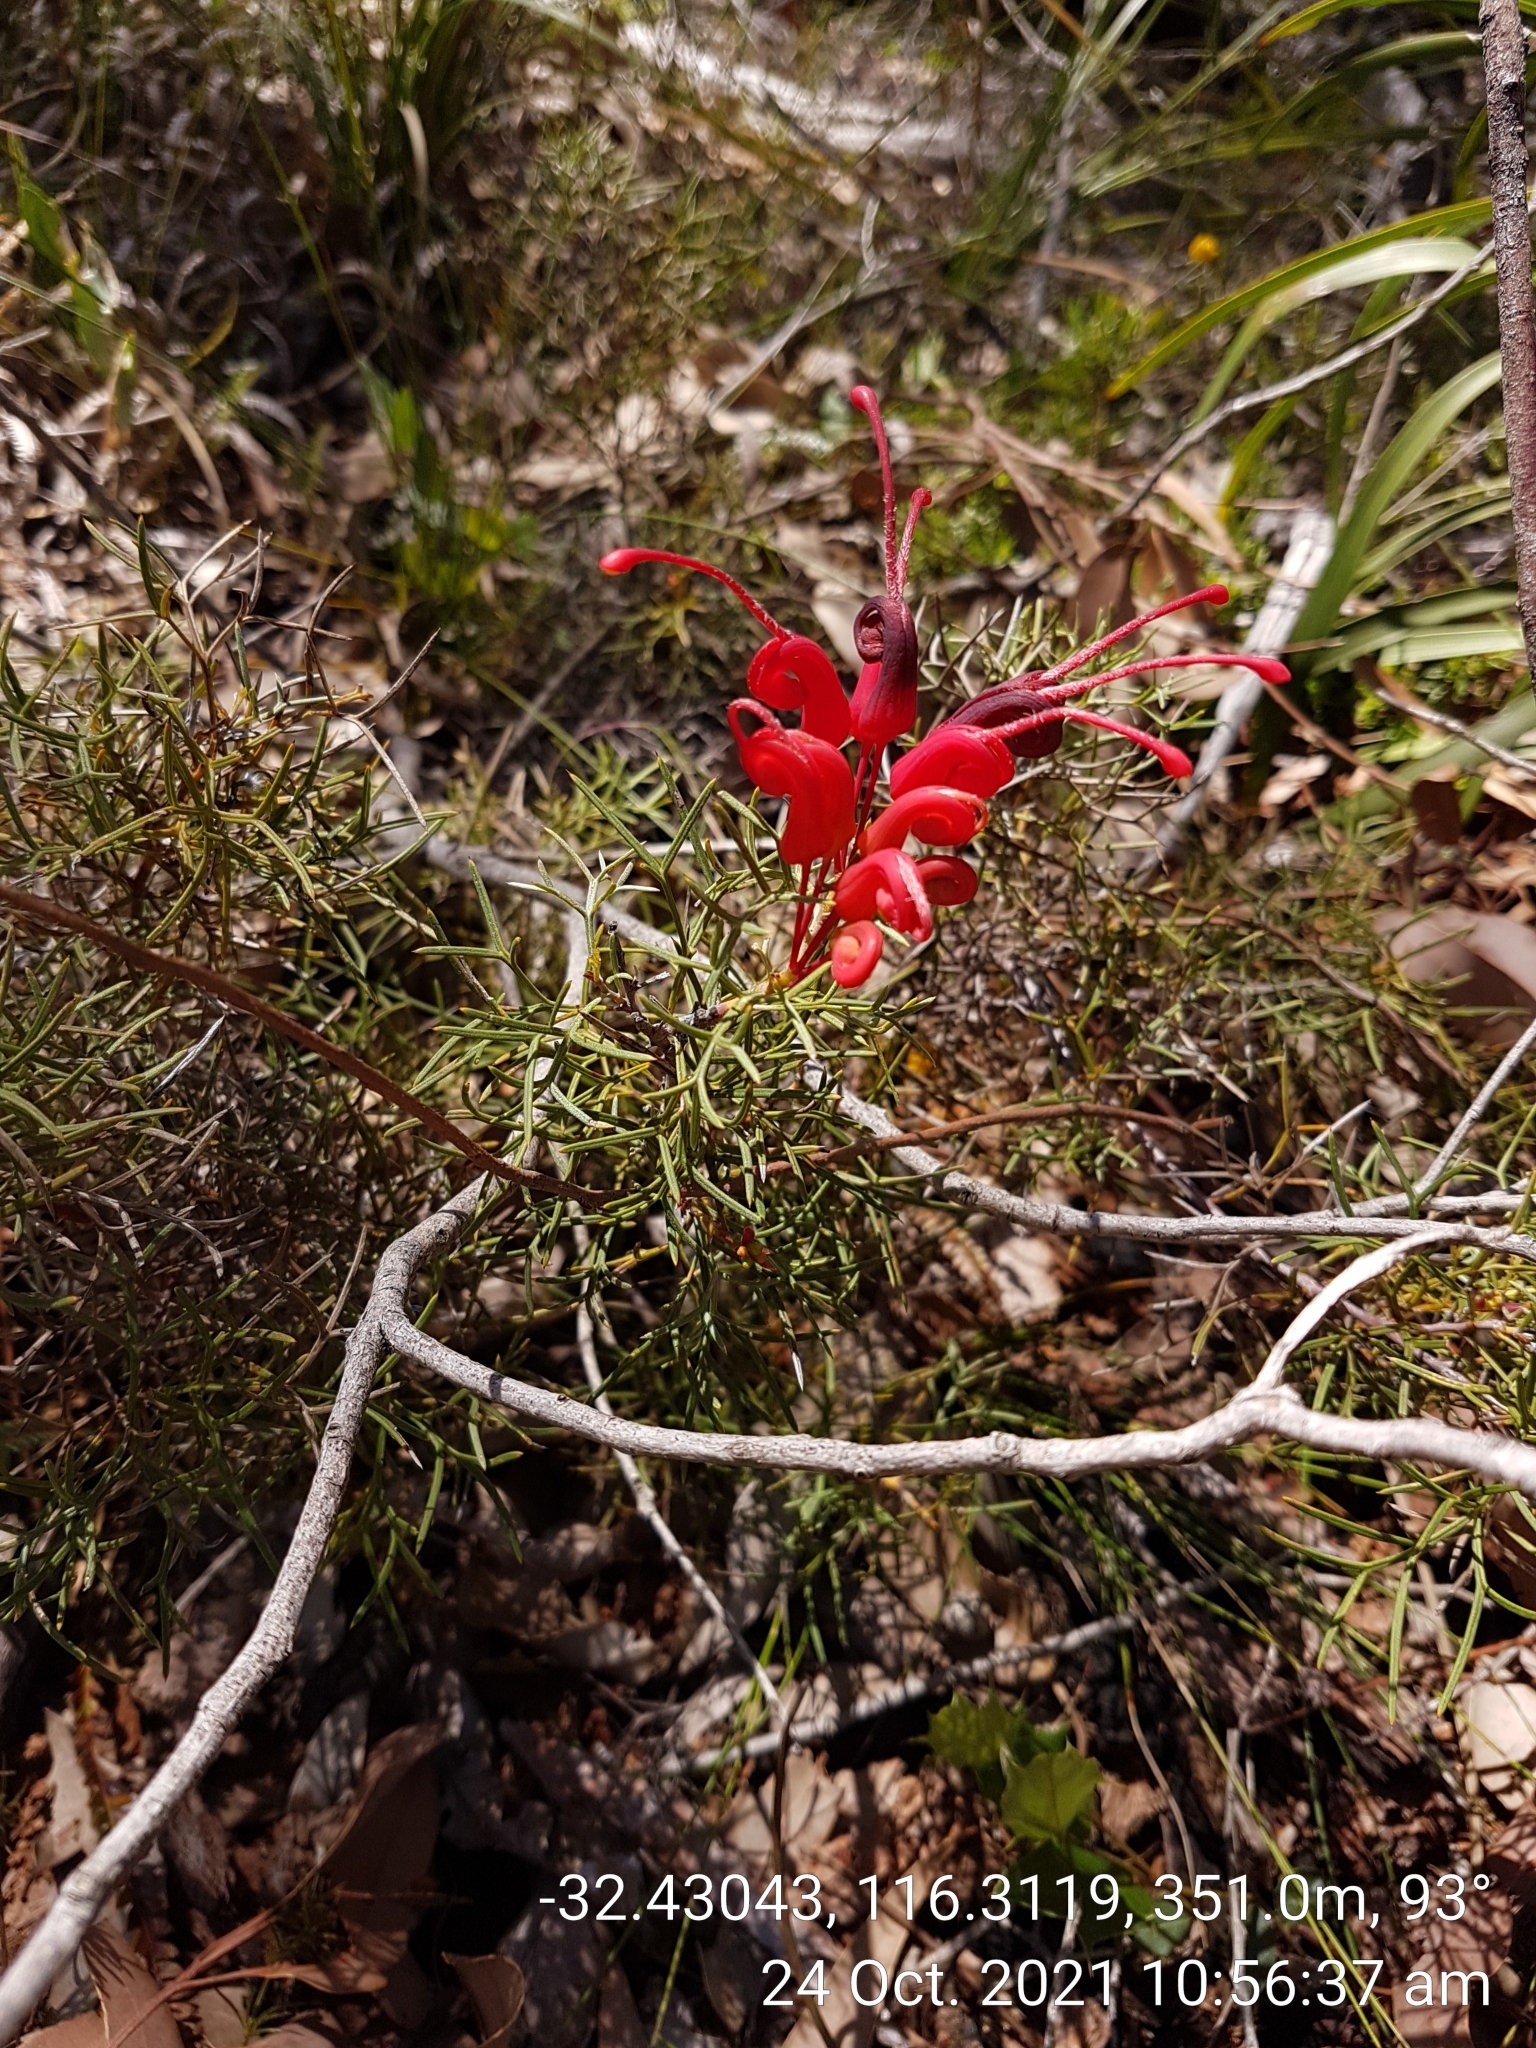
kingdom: Plantae
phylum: Tracheophyta
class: Magnoliopsida
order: Proteales
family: Proteaceae
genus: Grevillea
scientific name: Grevillea wilsonii
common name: Fire-wheel
